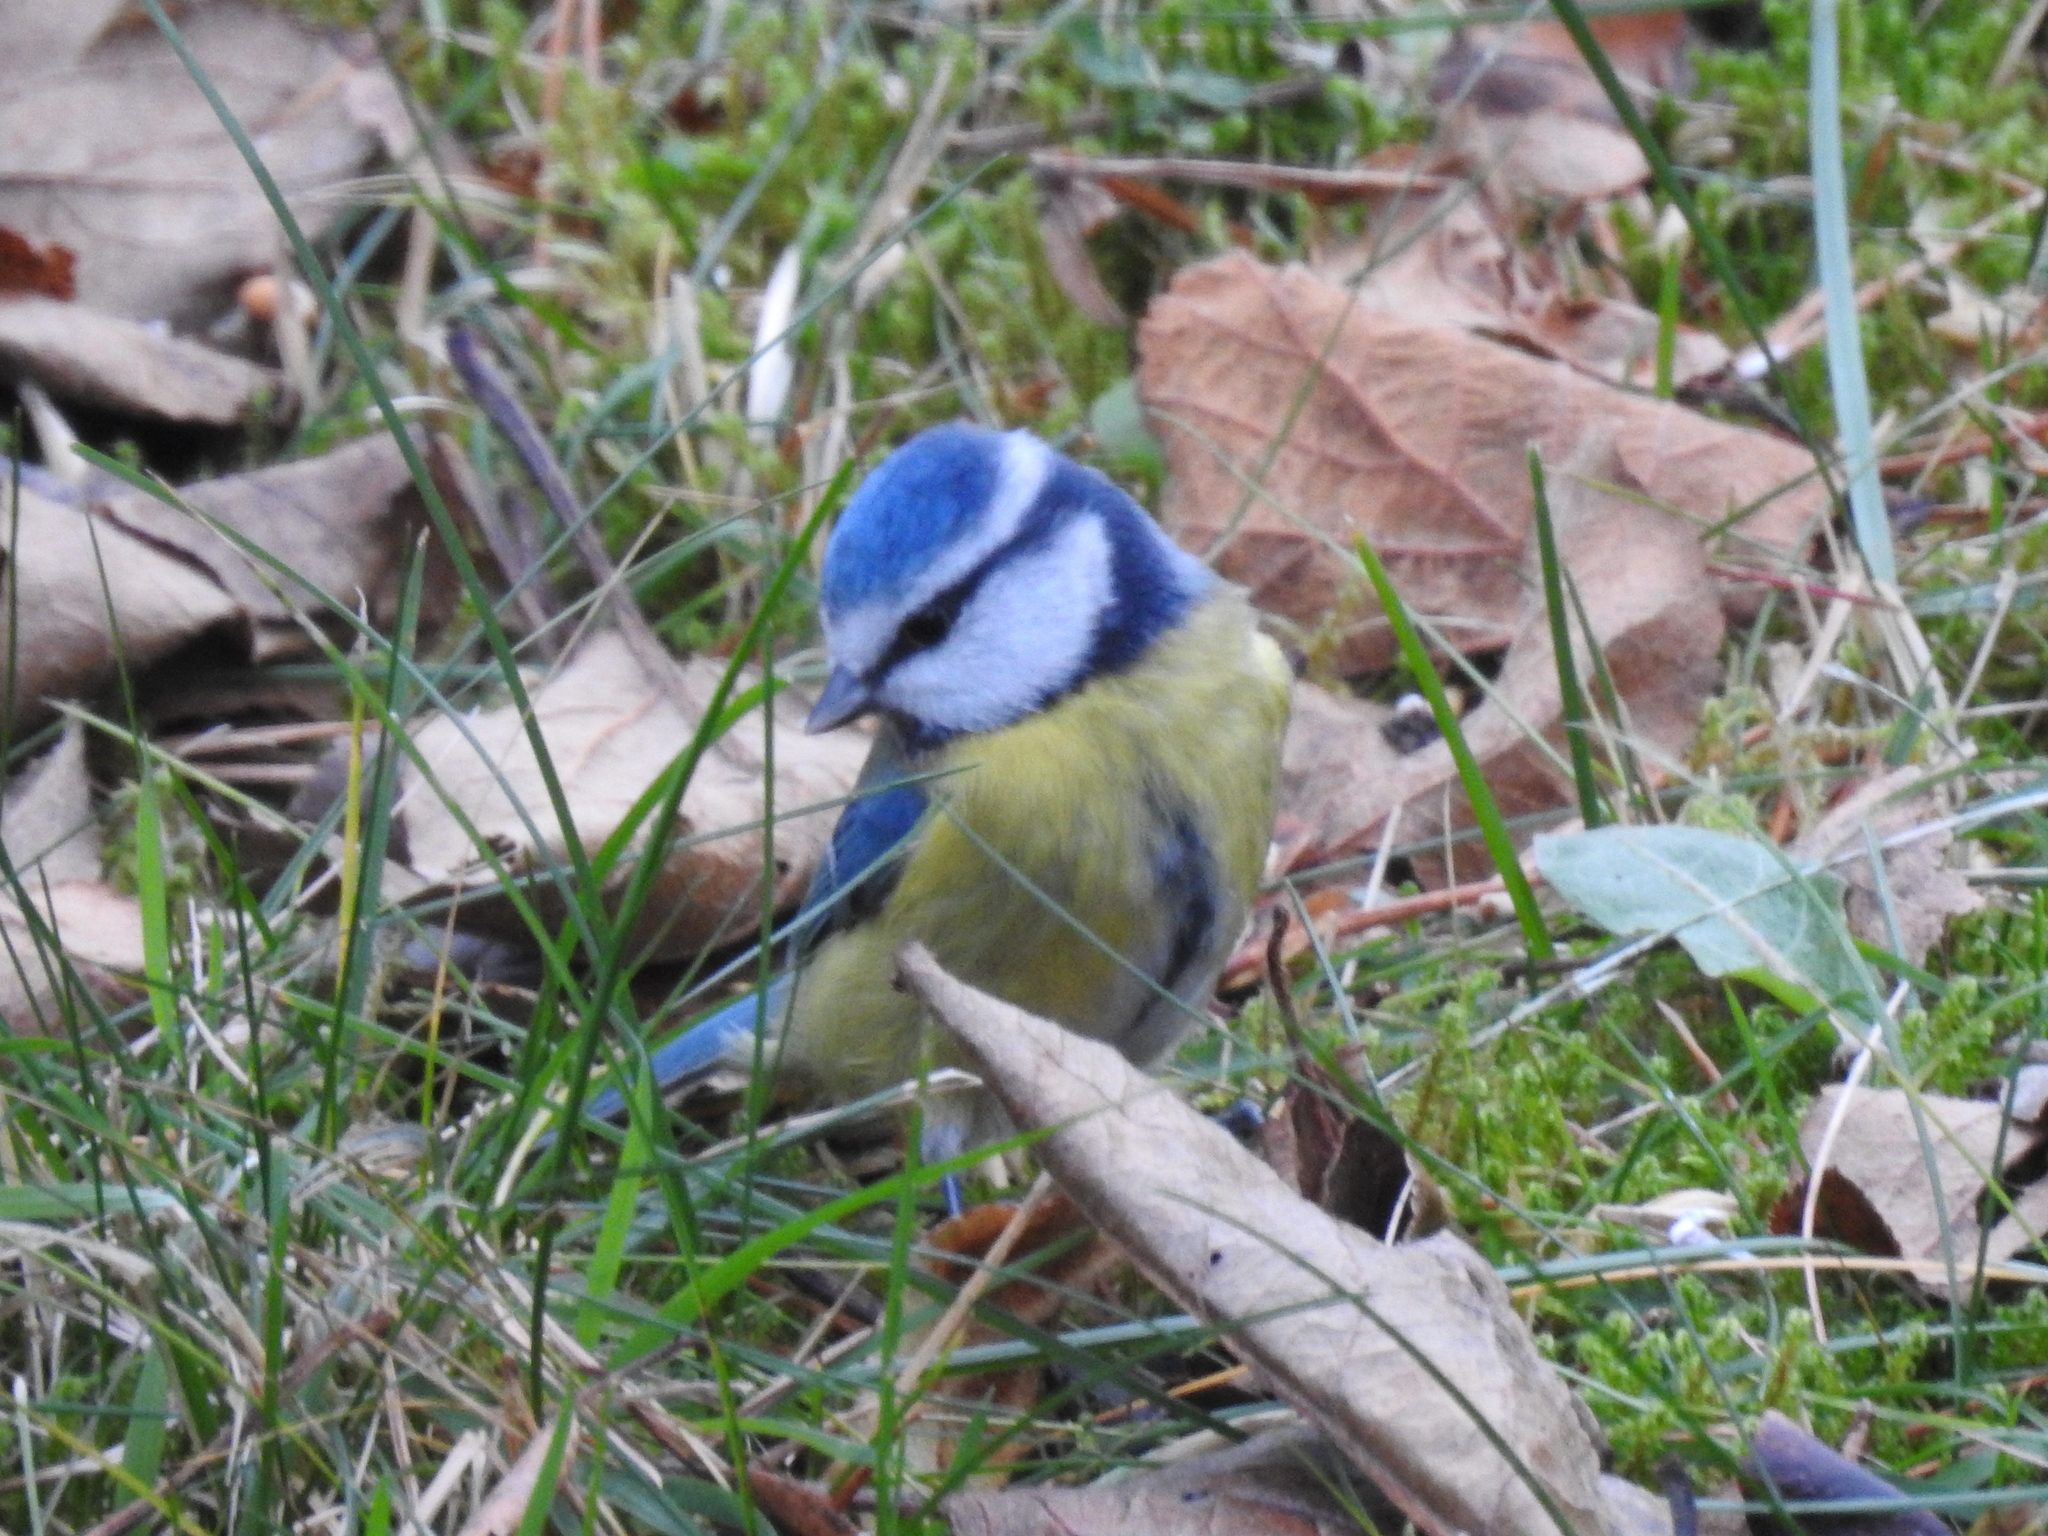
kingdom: Animalia
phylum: Chordata
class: Aves
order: Passeriformes
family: Paridae
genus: Cyanistes
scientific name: Cyanistes caeruleus
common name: Eurasian blue tit
